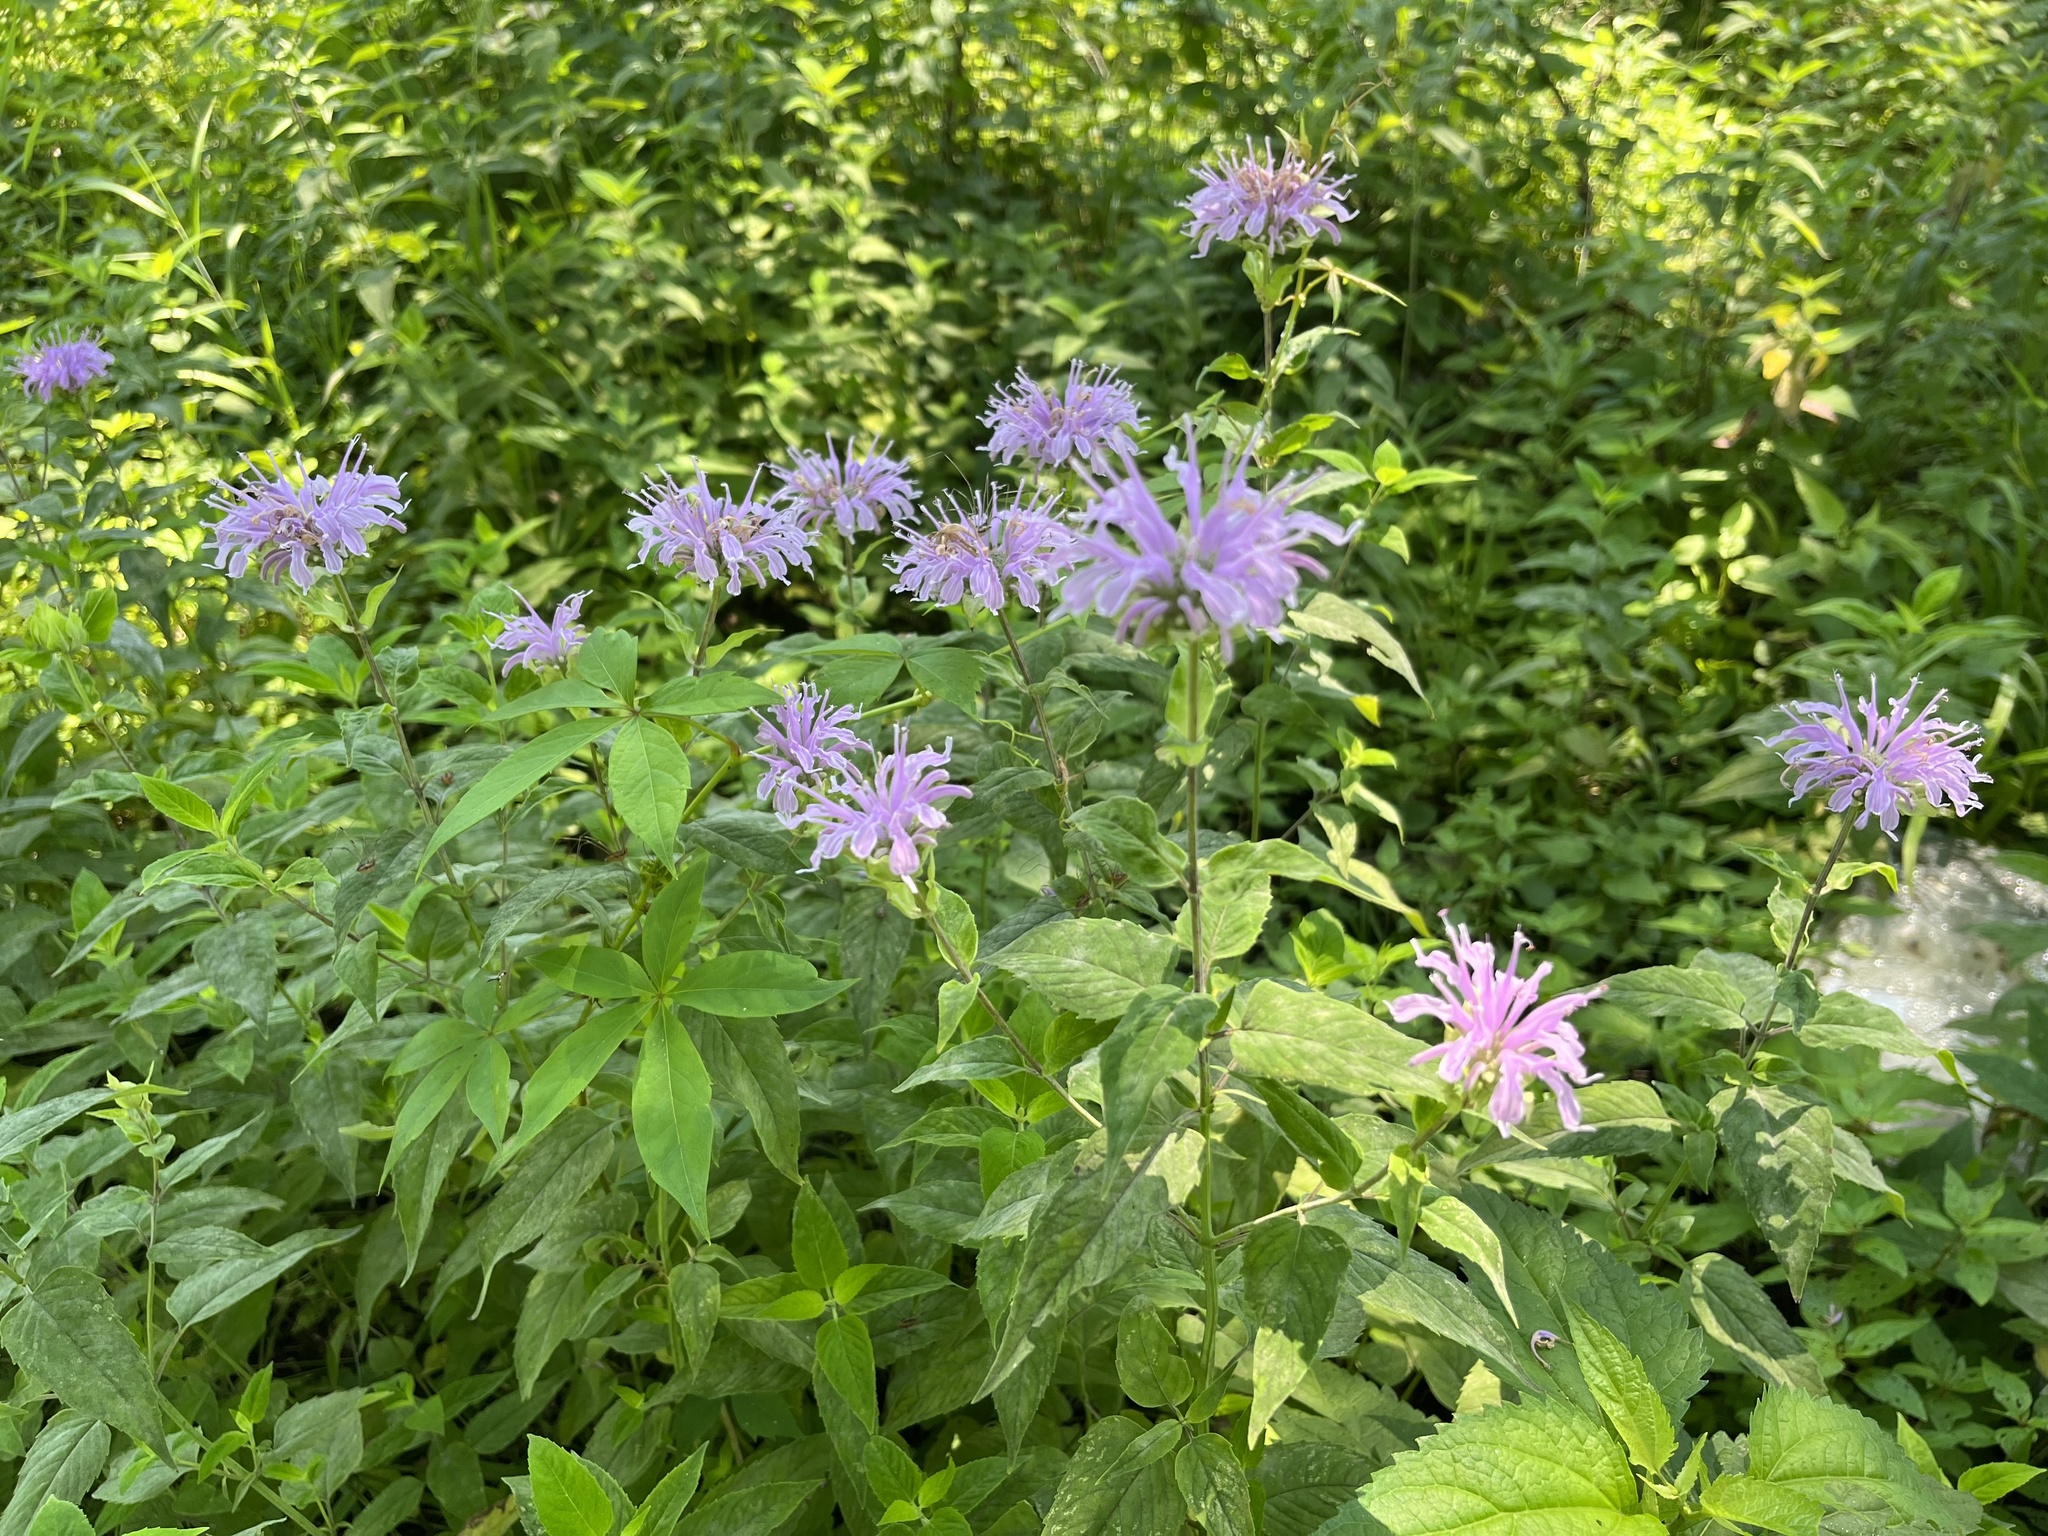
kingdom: Plantae
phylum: Tracheophyta
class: Magnoliopsida
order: Lamiales
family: Lamiaceae
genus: Monarda
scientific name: Monarda fistulosa
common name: Purple beebalm
